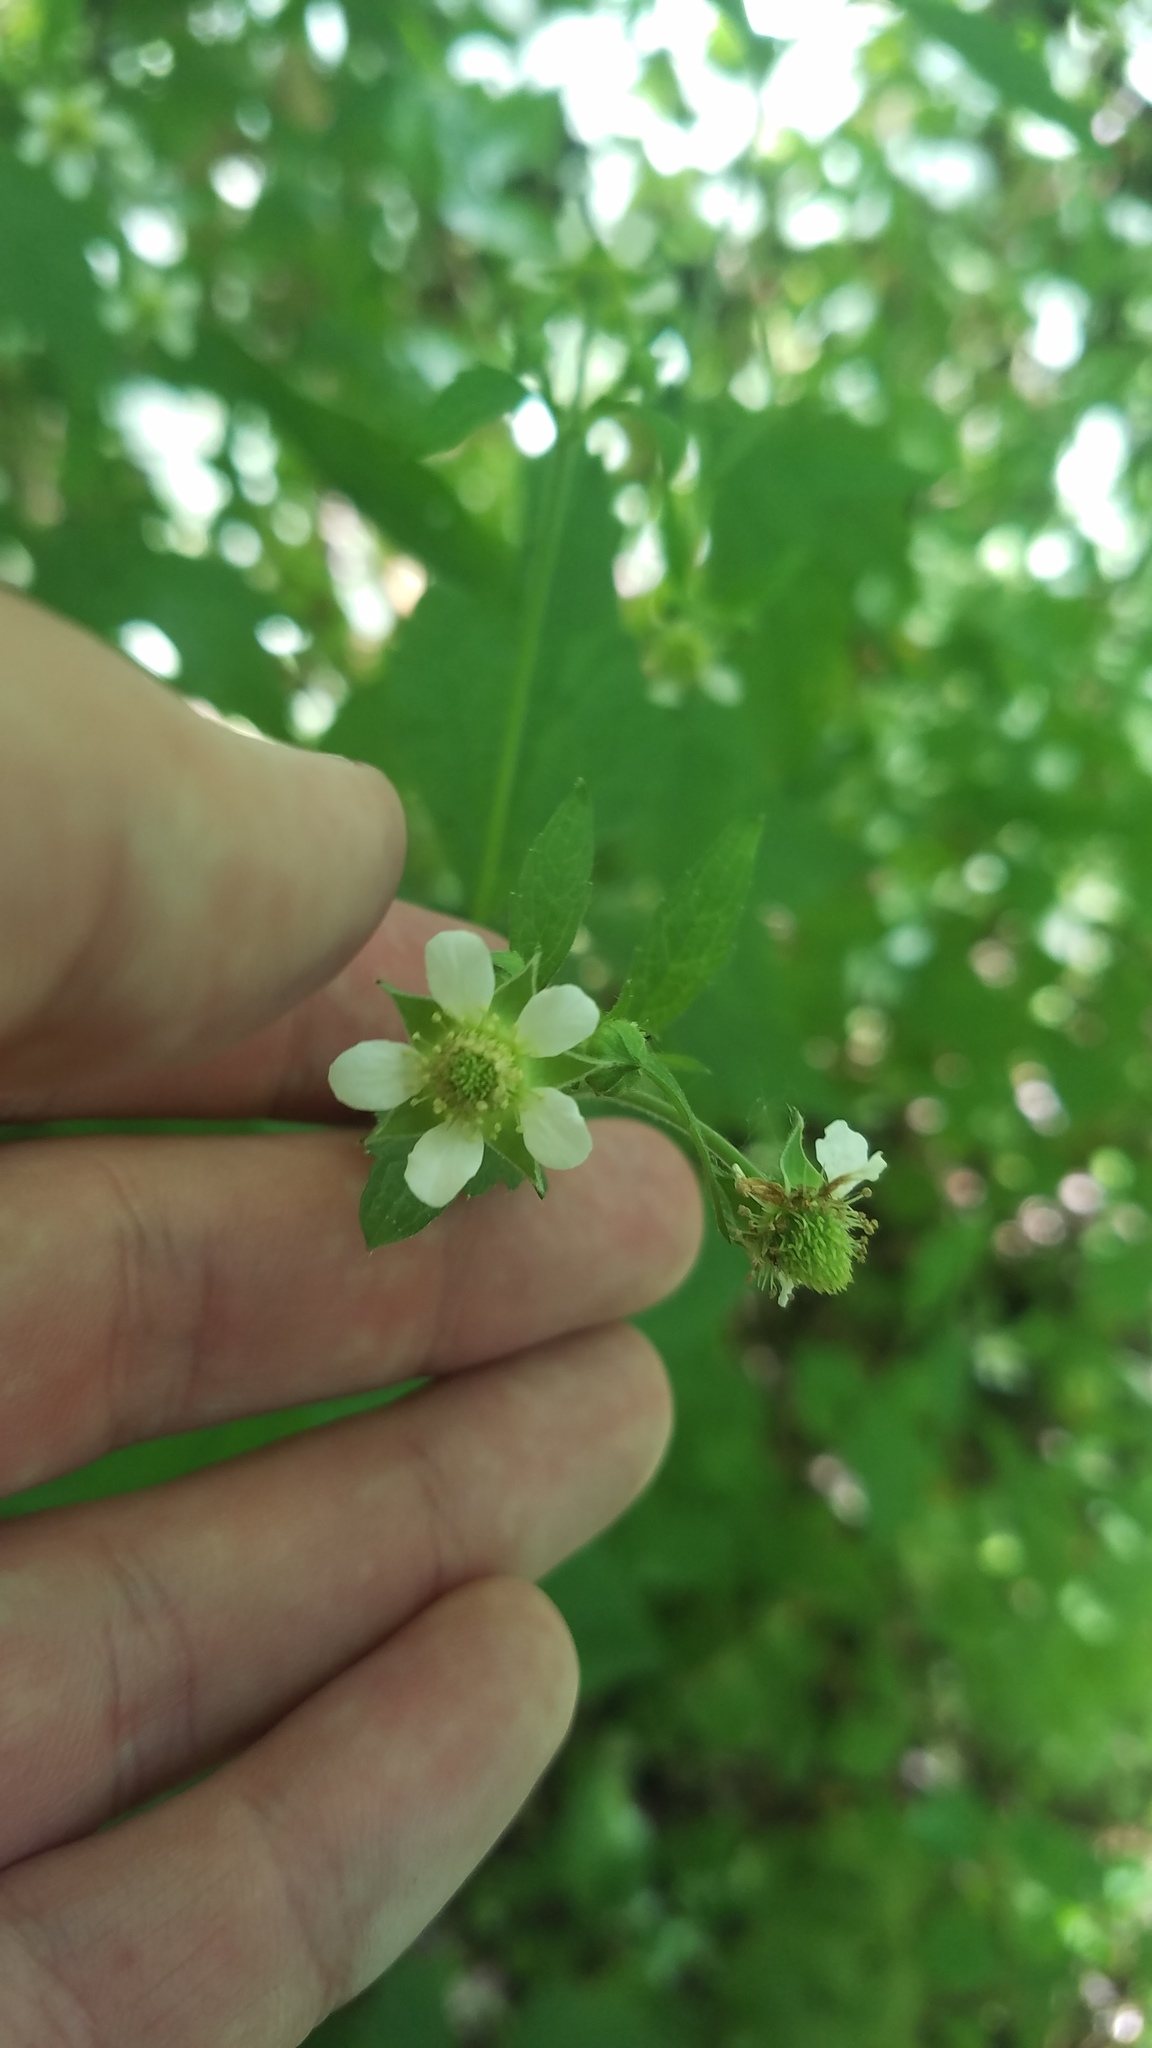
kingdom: Plantae
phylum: Tracheophyta
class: Magnoliopsida
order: Rosales
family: Rosaceae
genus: Geum
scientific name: Geum canadense
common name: White avens
